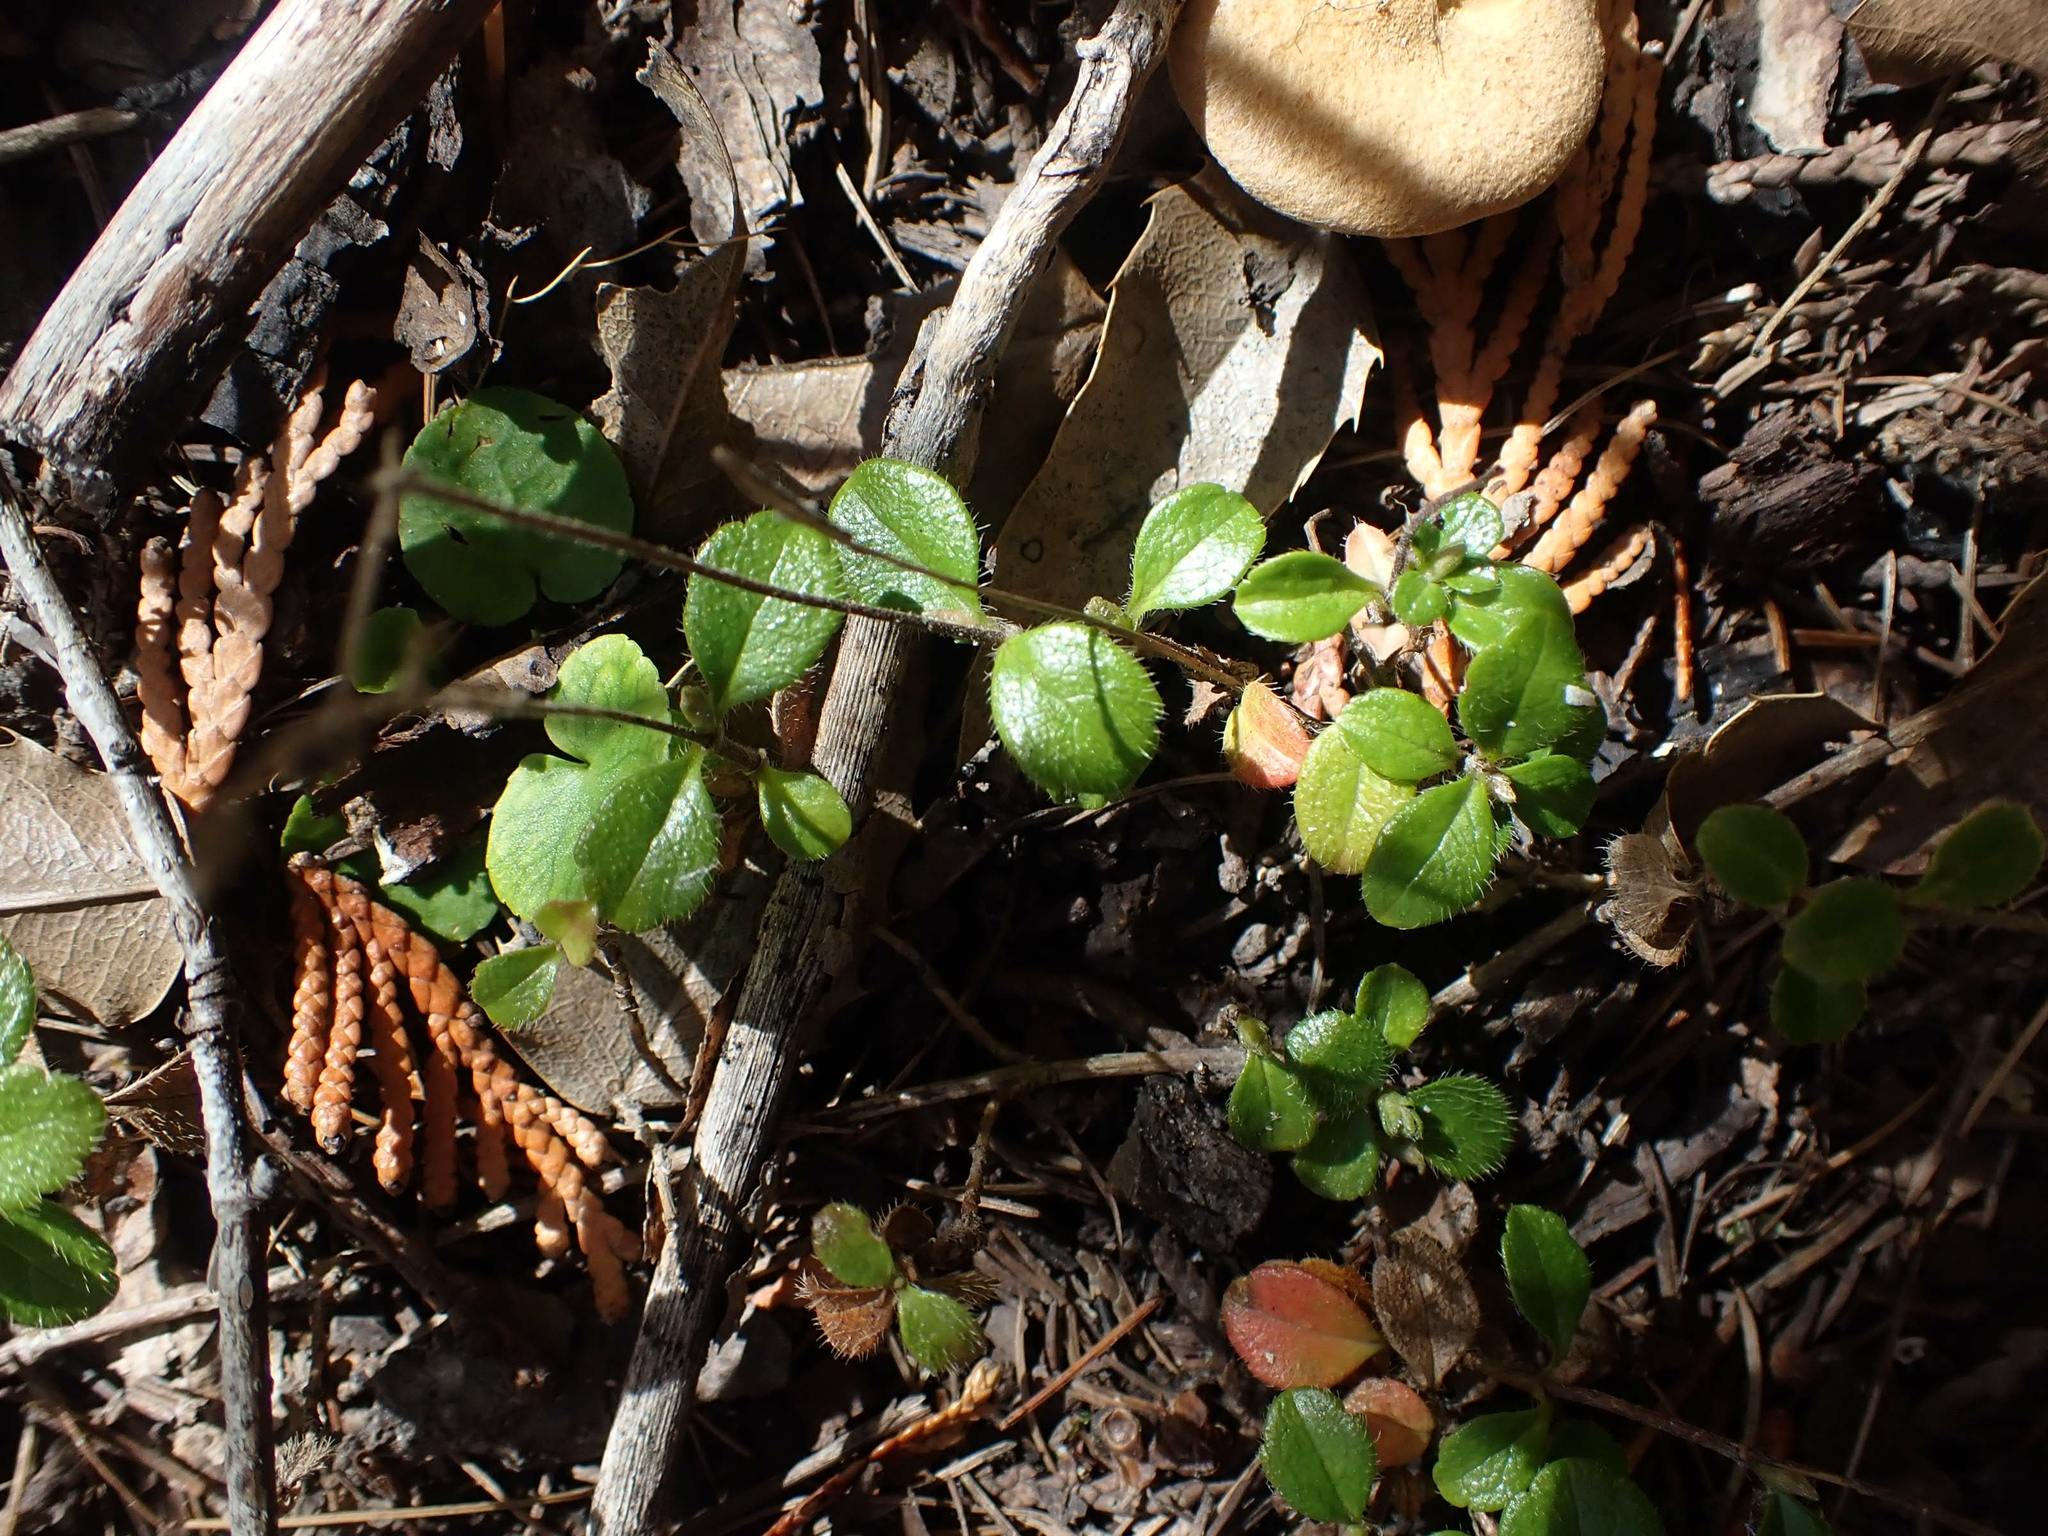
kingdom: Plantae
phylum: Tracheophyta
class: Magnoliopsida
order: Dipsacales
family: Caprifoliaceae
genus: Linnaea
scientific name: Linnaea borealis
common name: Twinflower
